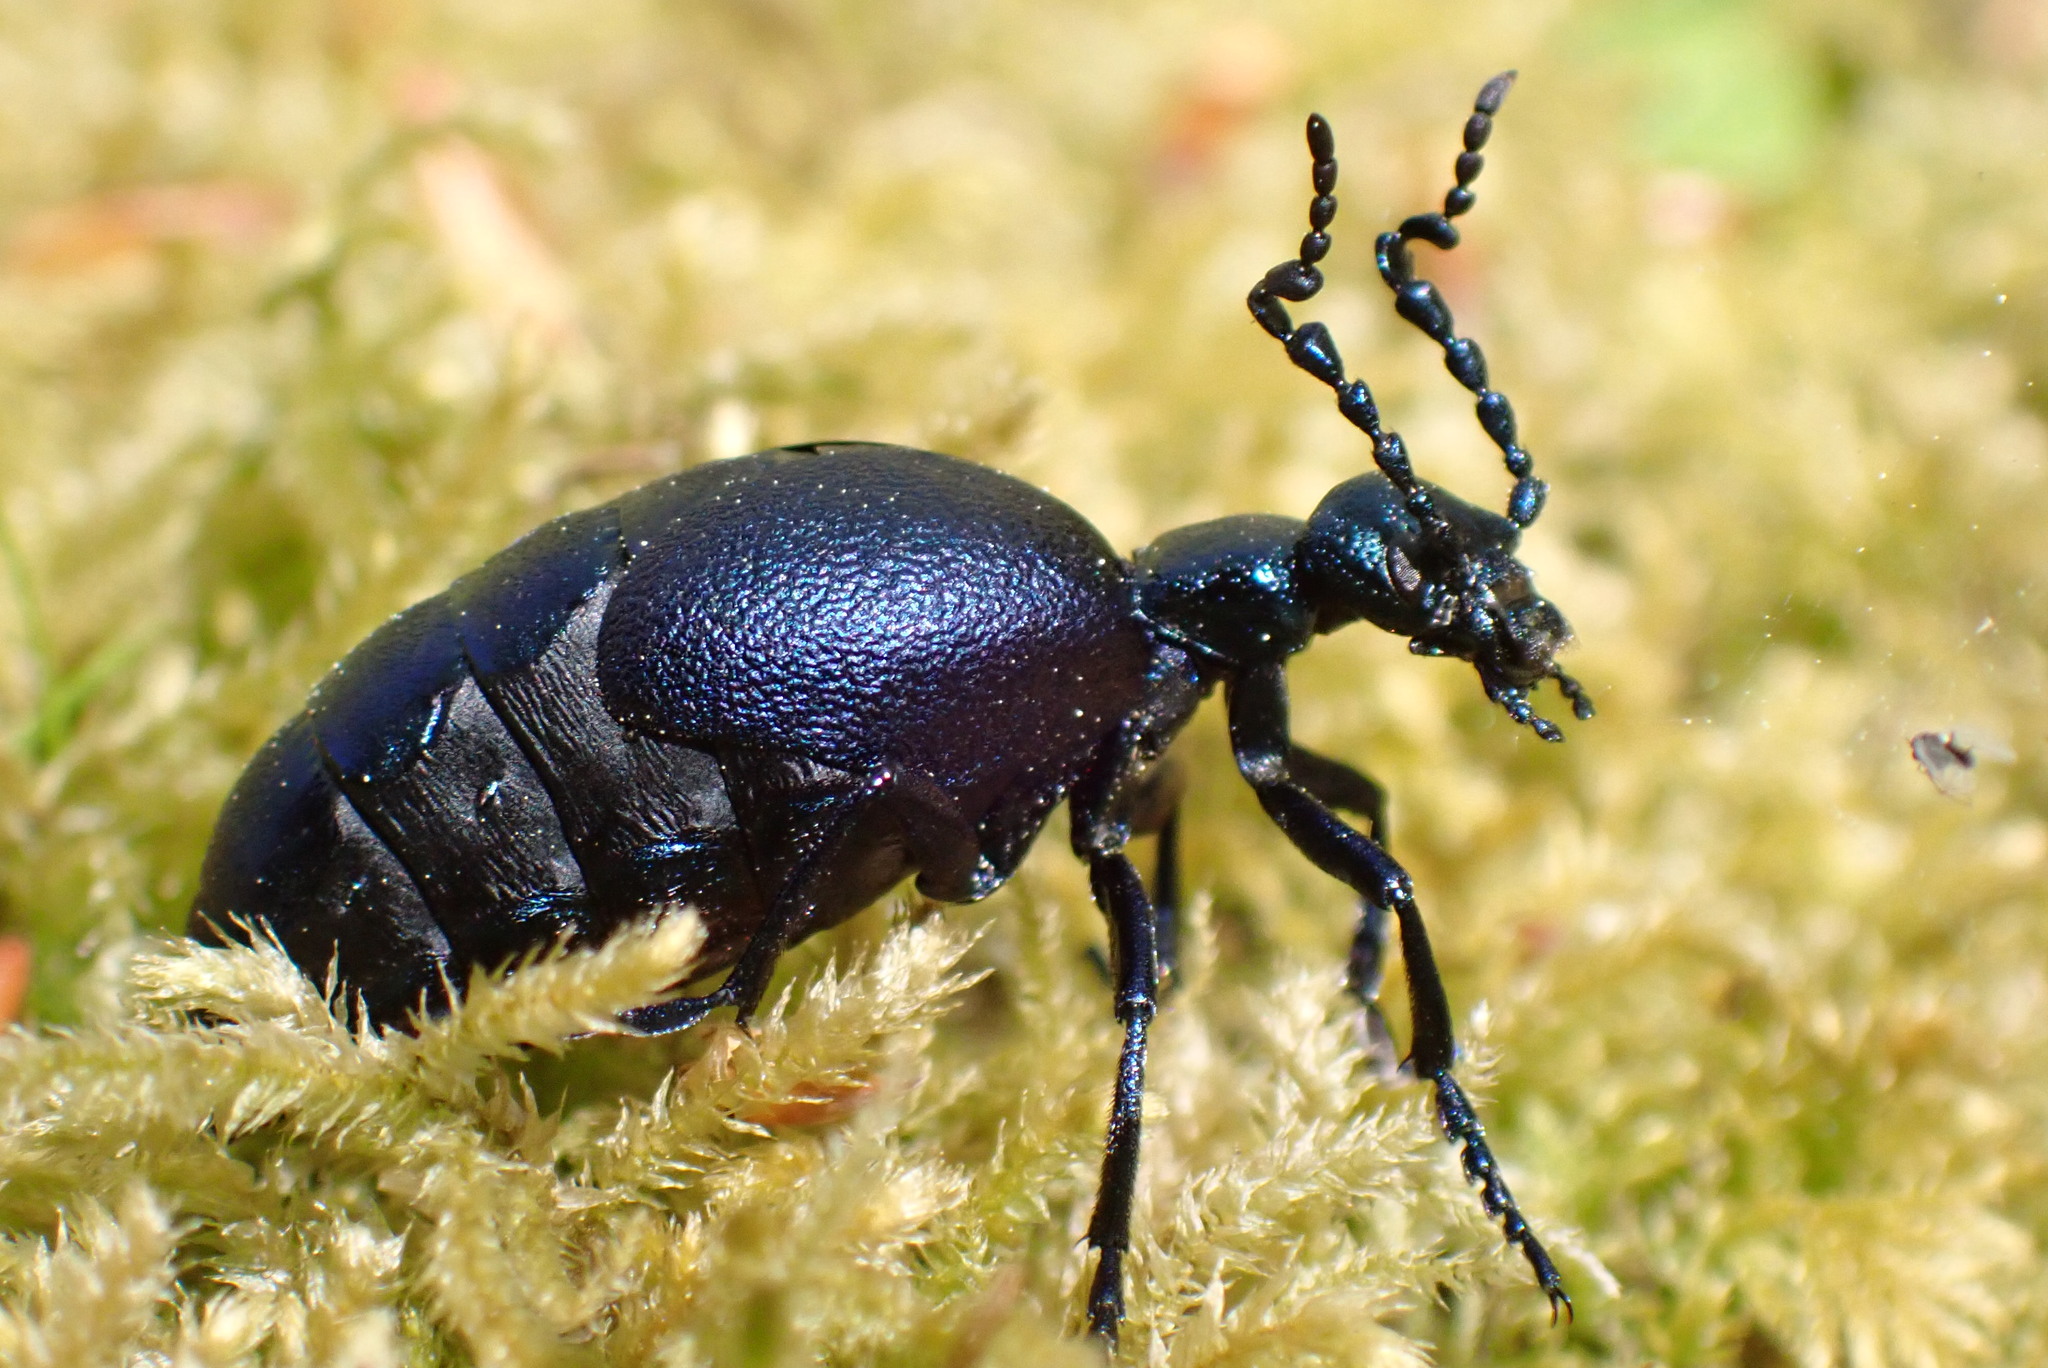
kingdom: Animalia
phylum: Arthropoda
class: Insecta
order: Coleoptera
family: Meloidae
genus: Meloe
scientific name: Meloe violaceus
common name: Violet oil-beetle
